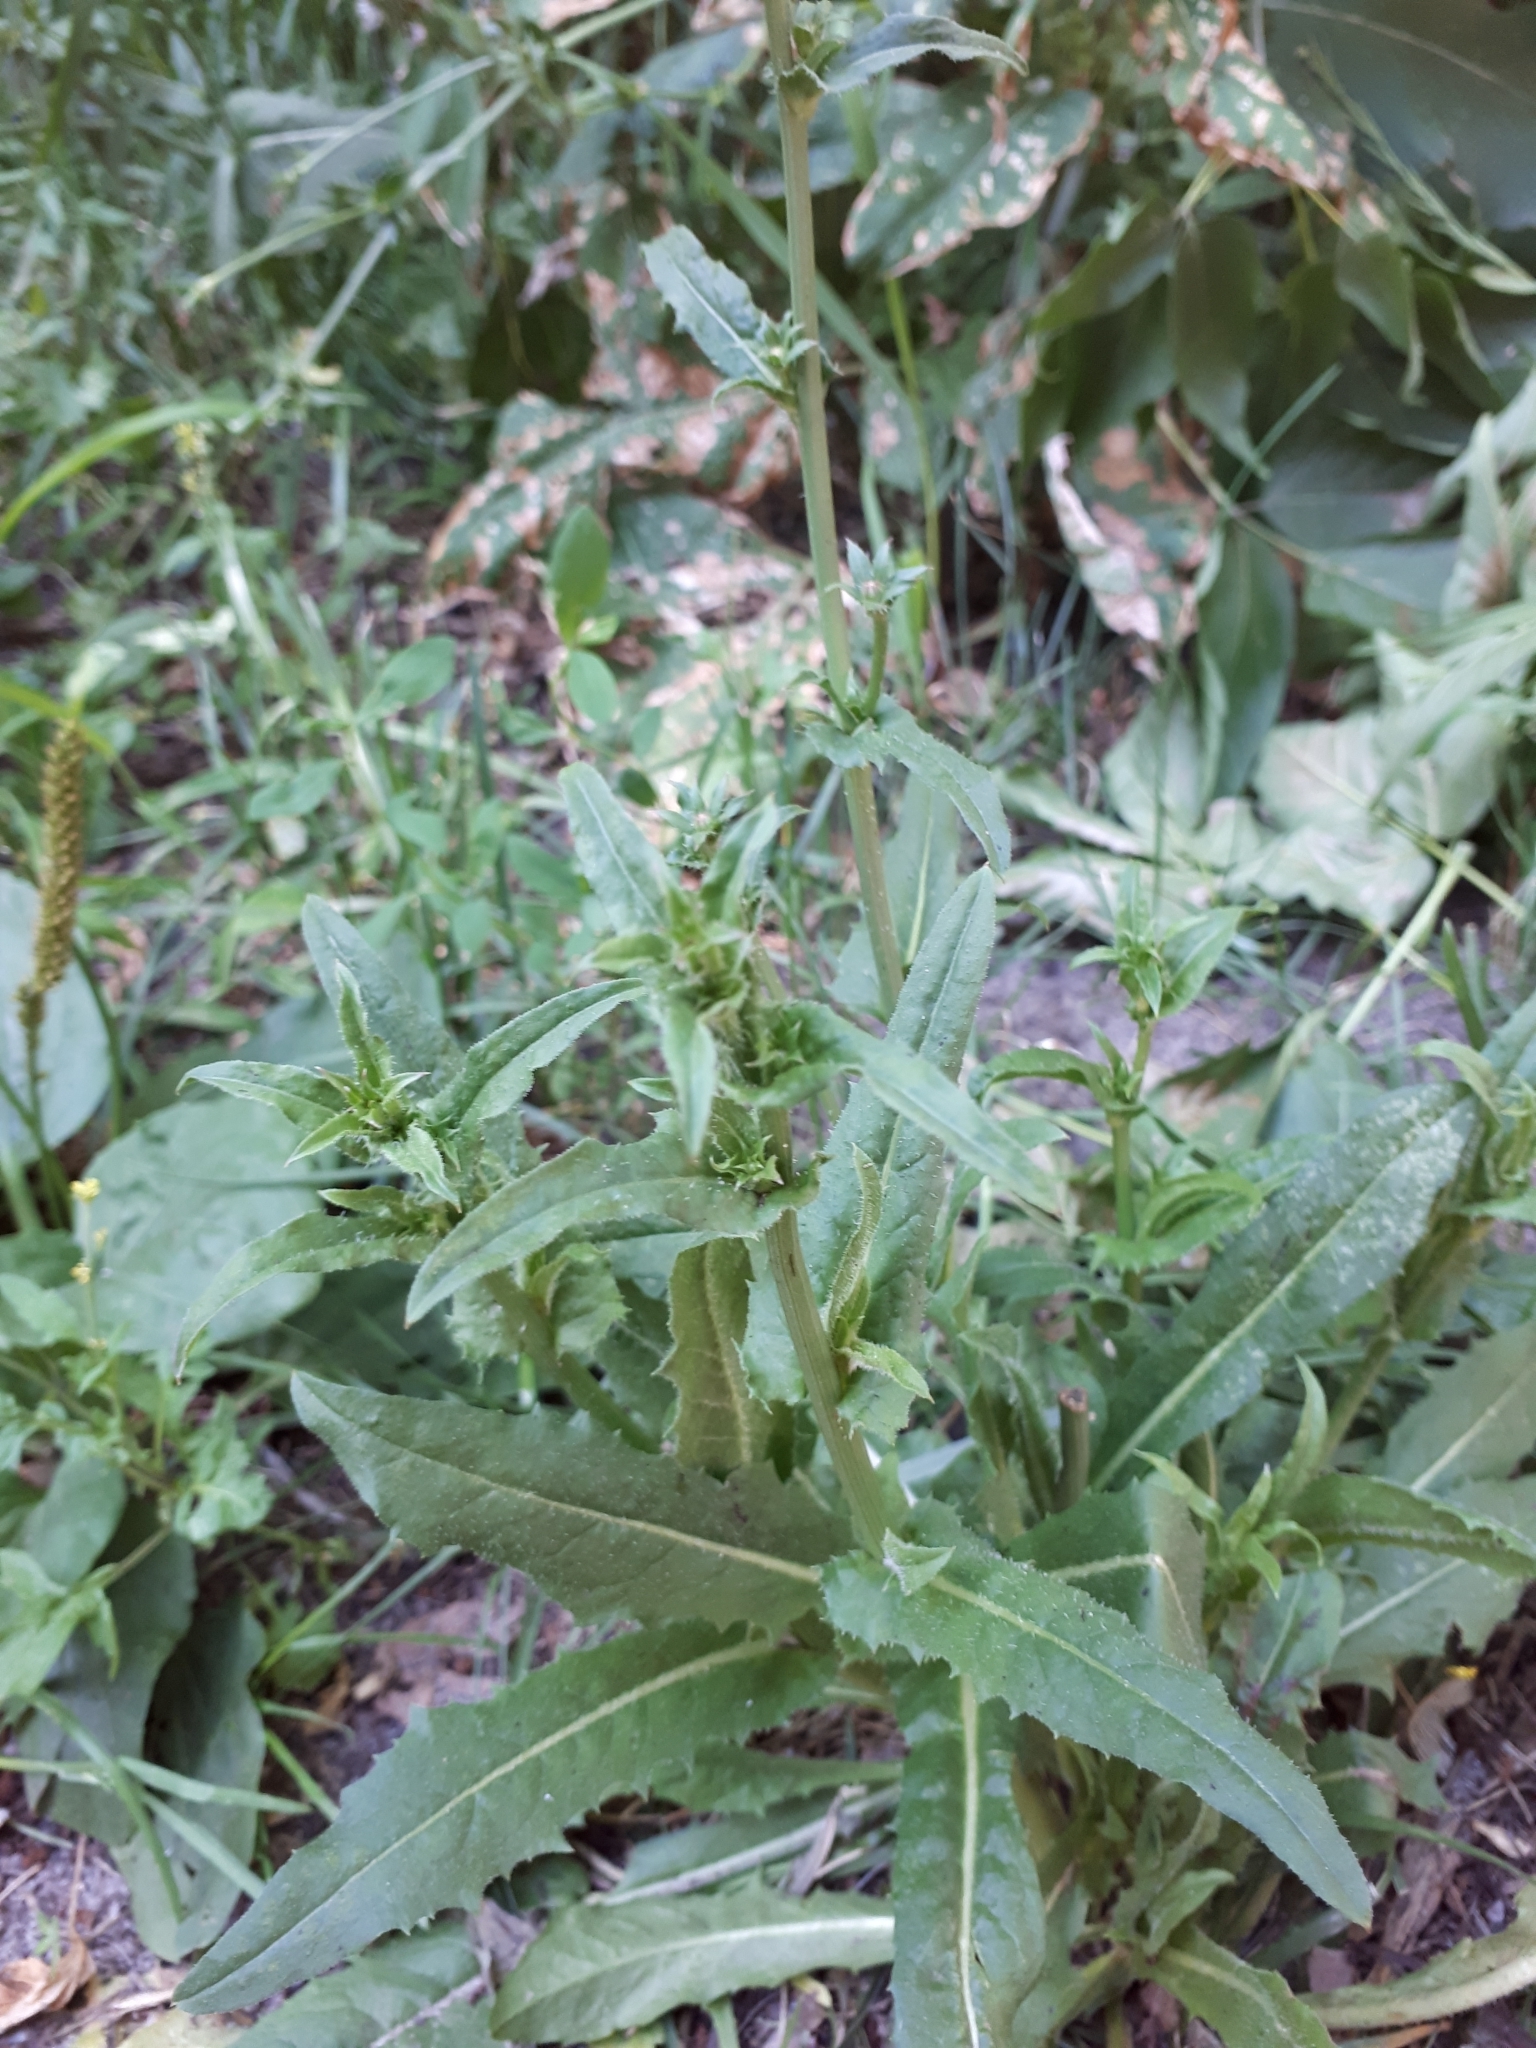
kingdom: Plantae
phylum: Tracheophyta
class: Magnoliopsida
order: Asterales
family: Asteraceae
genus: Cichorium
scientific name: Cichorium intybus
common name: Chicory
